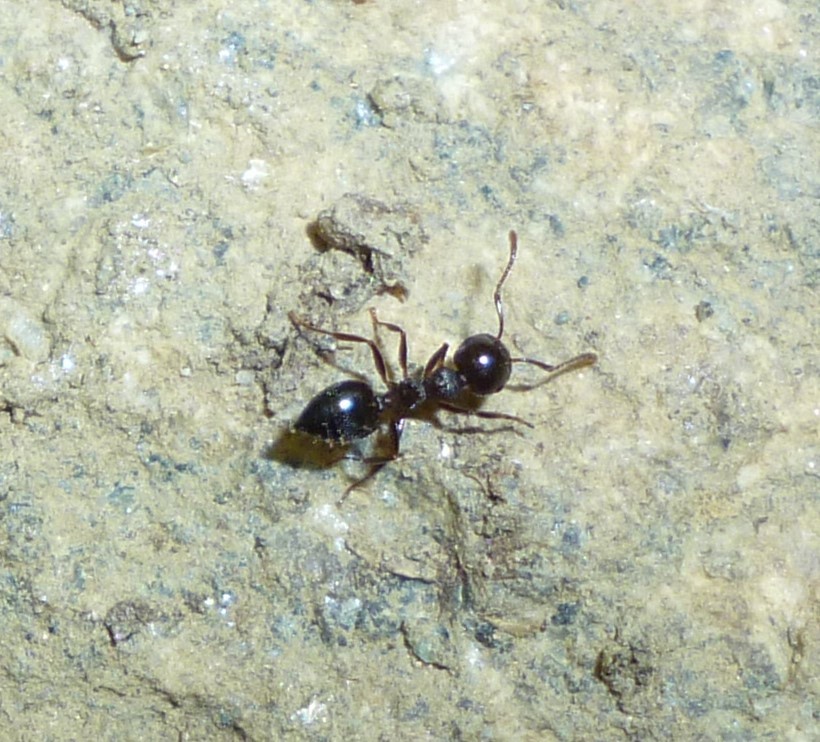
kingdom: Animalia
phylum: Arthropoda
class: Insecta
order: Hymenoptera
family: Formicidae
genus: Crematogaster
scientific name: Crematogaster
